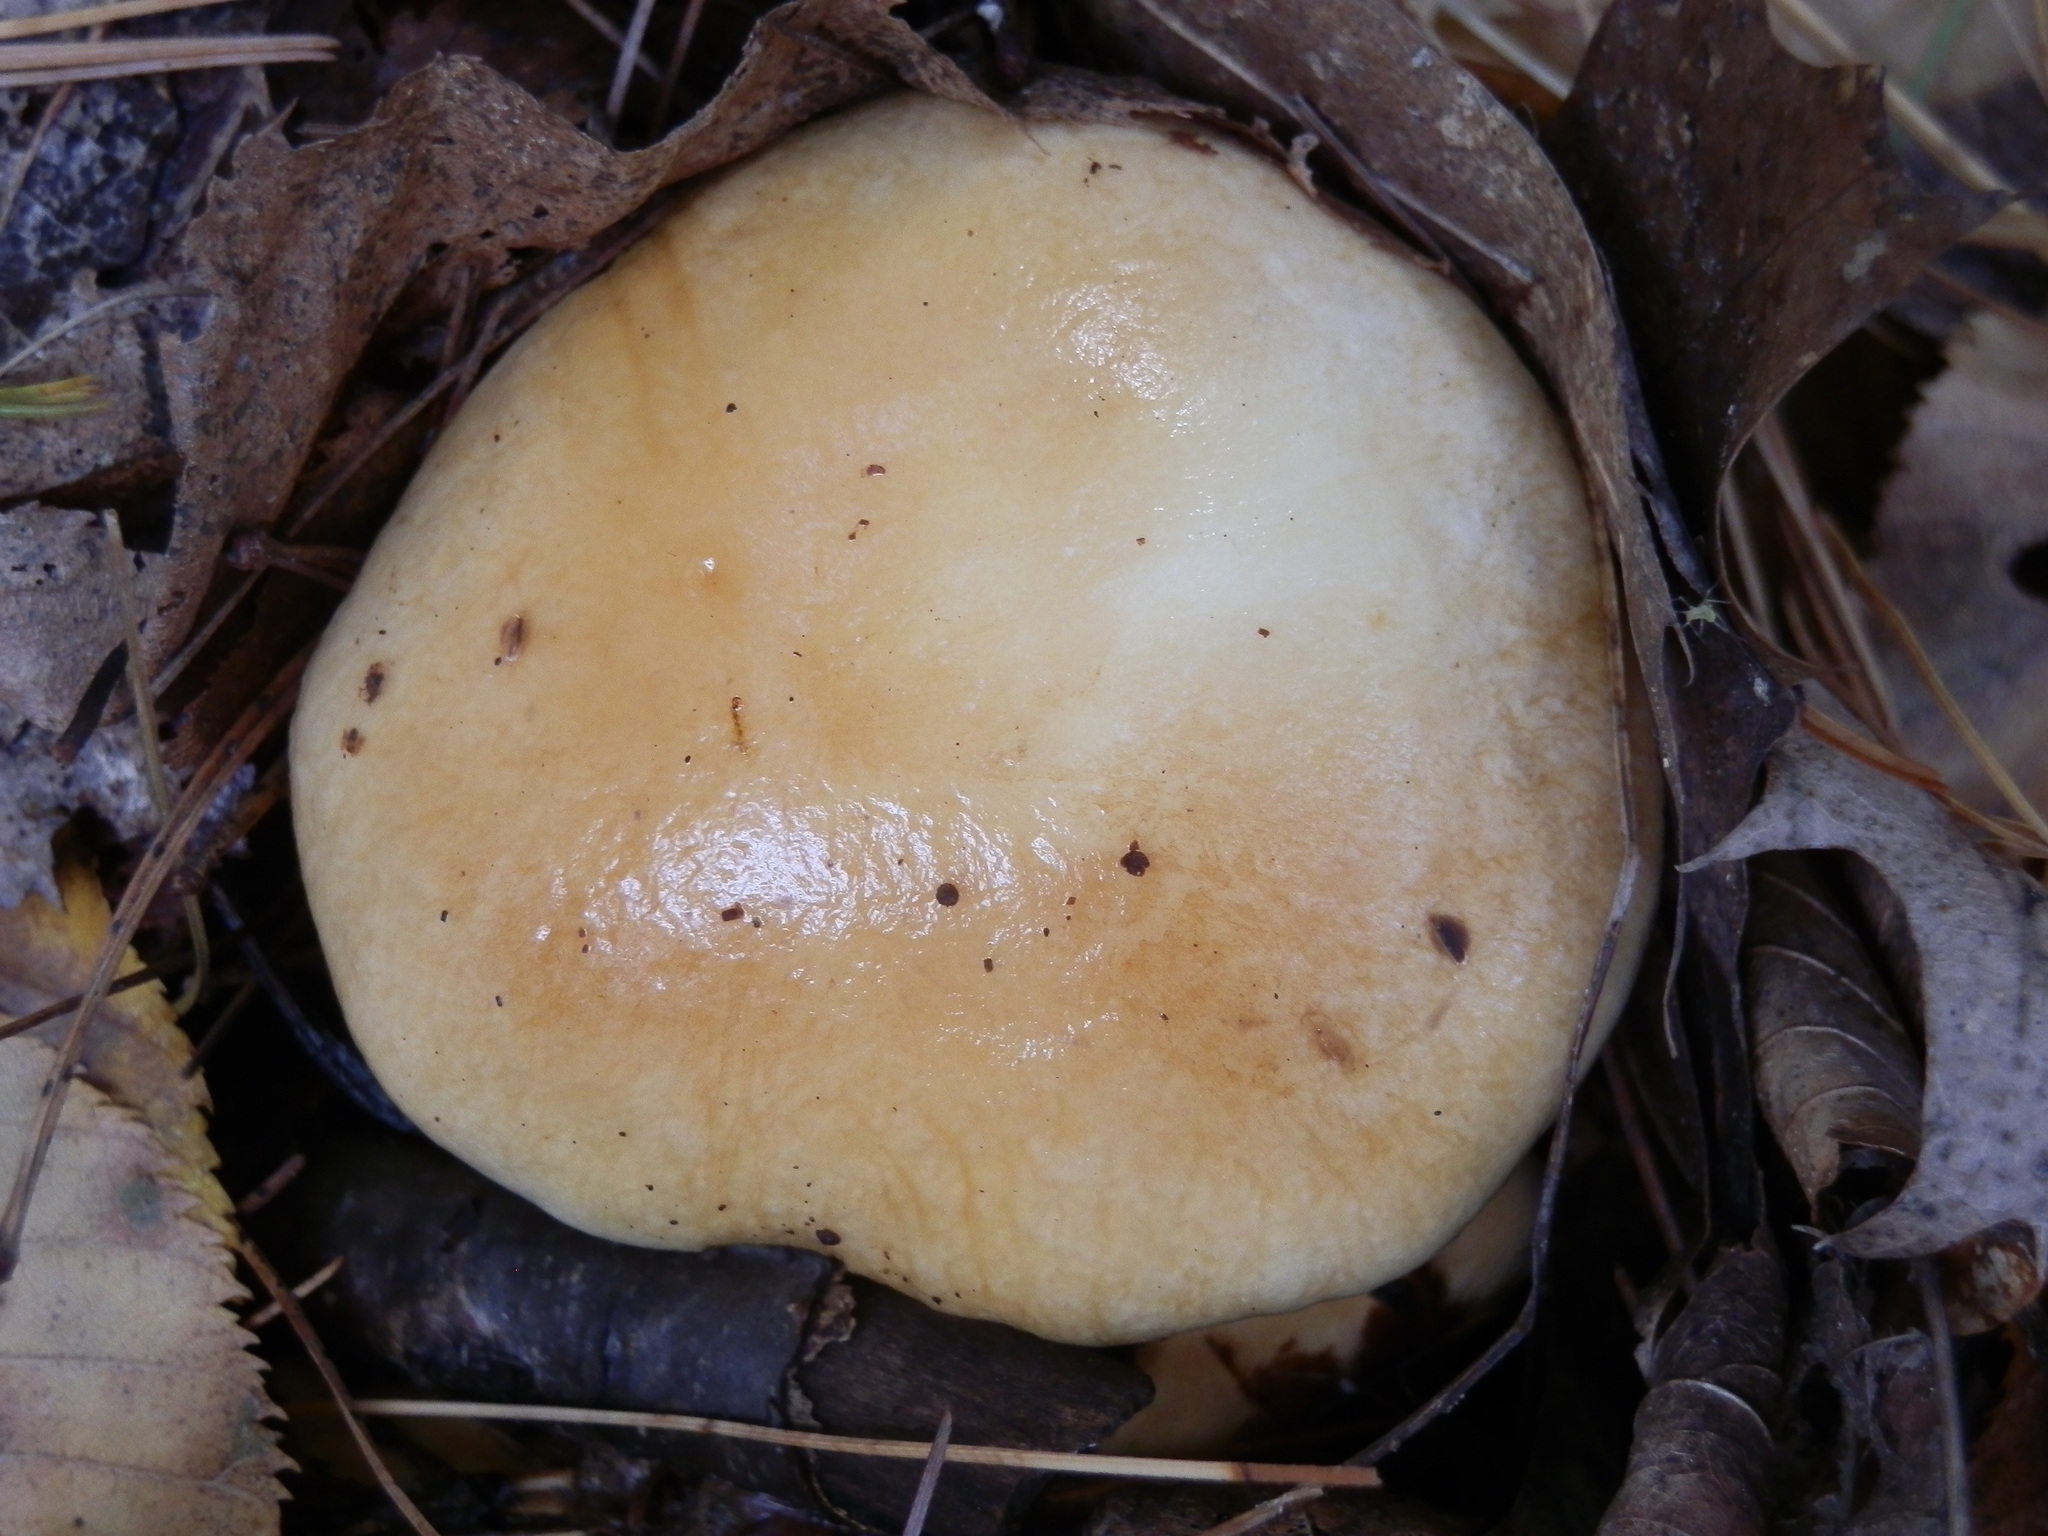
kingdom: Fungi
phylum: Basidiomycota
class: Agaricomycetes
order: Agaricales
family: Cortinariaceae
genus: Thaxterogaster
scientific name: Thaxterogaster vibratilis
